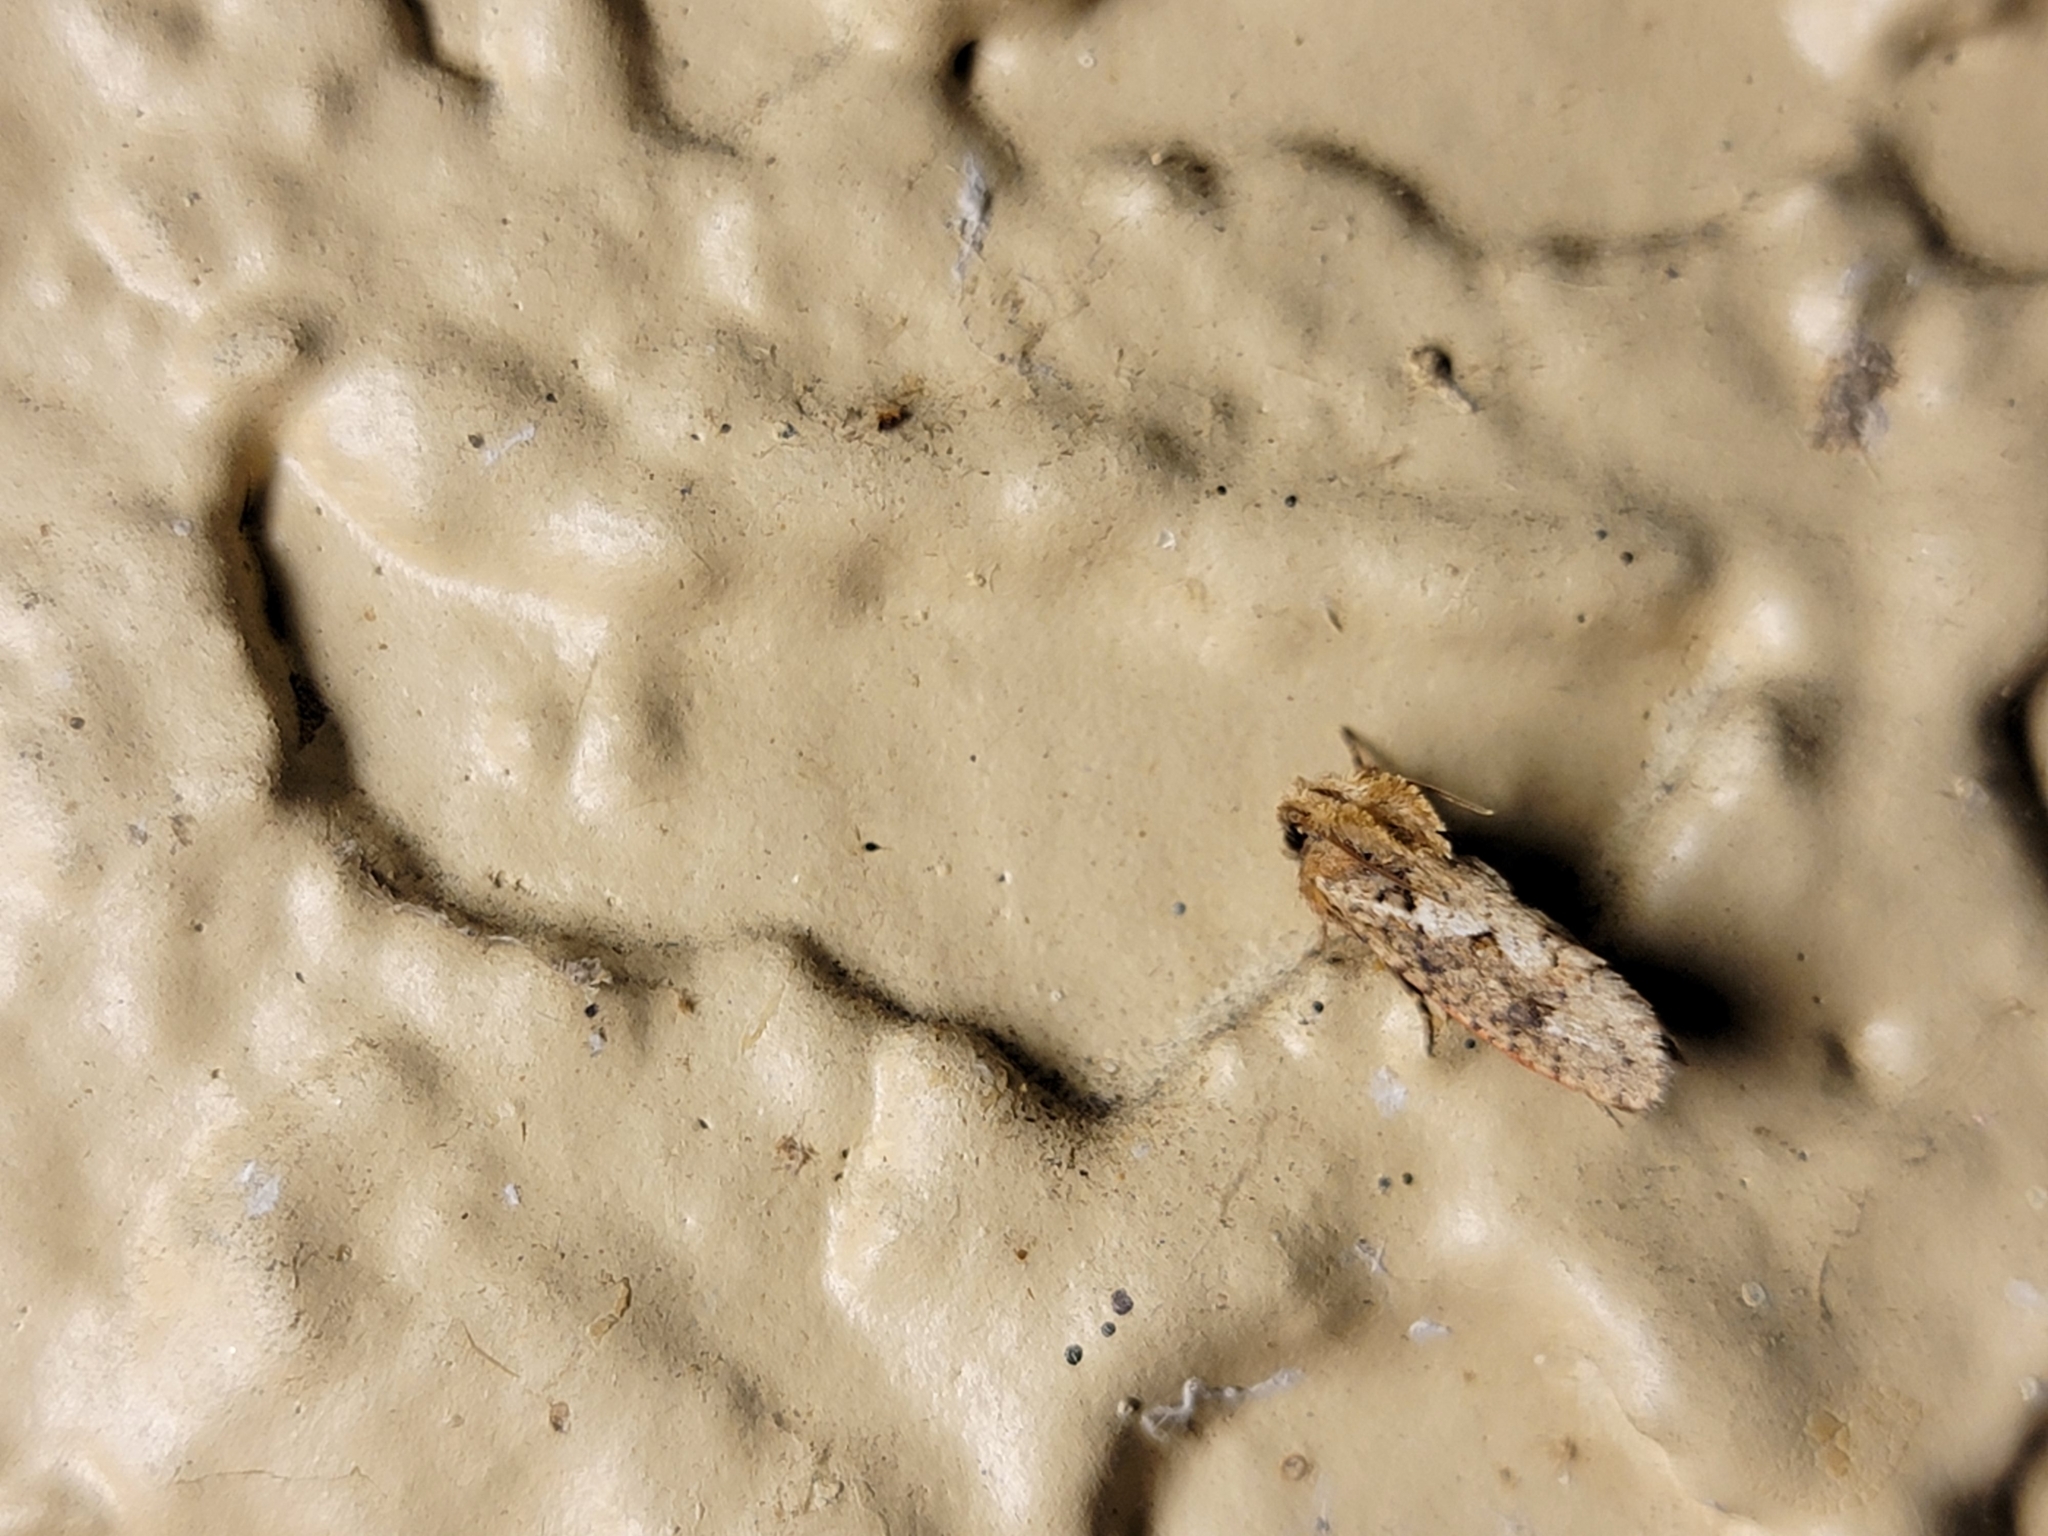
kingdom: Animalia
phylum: Arthropoda
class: Insecta
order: Lepidoptera
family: Tineidae
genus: Acrolophus
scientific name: Acrolophus walsinghami
